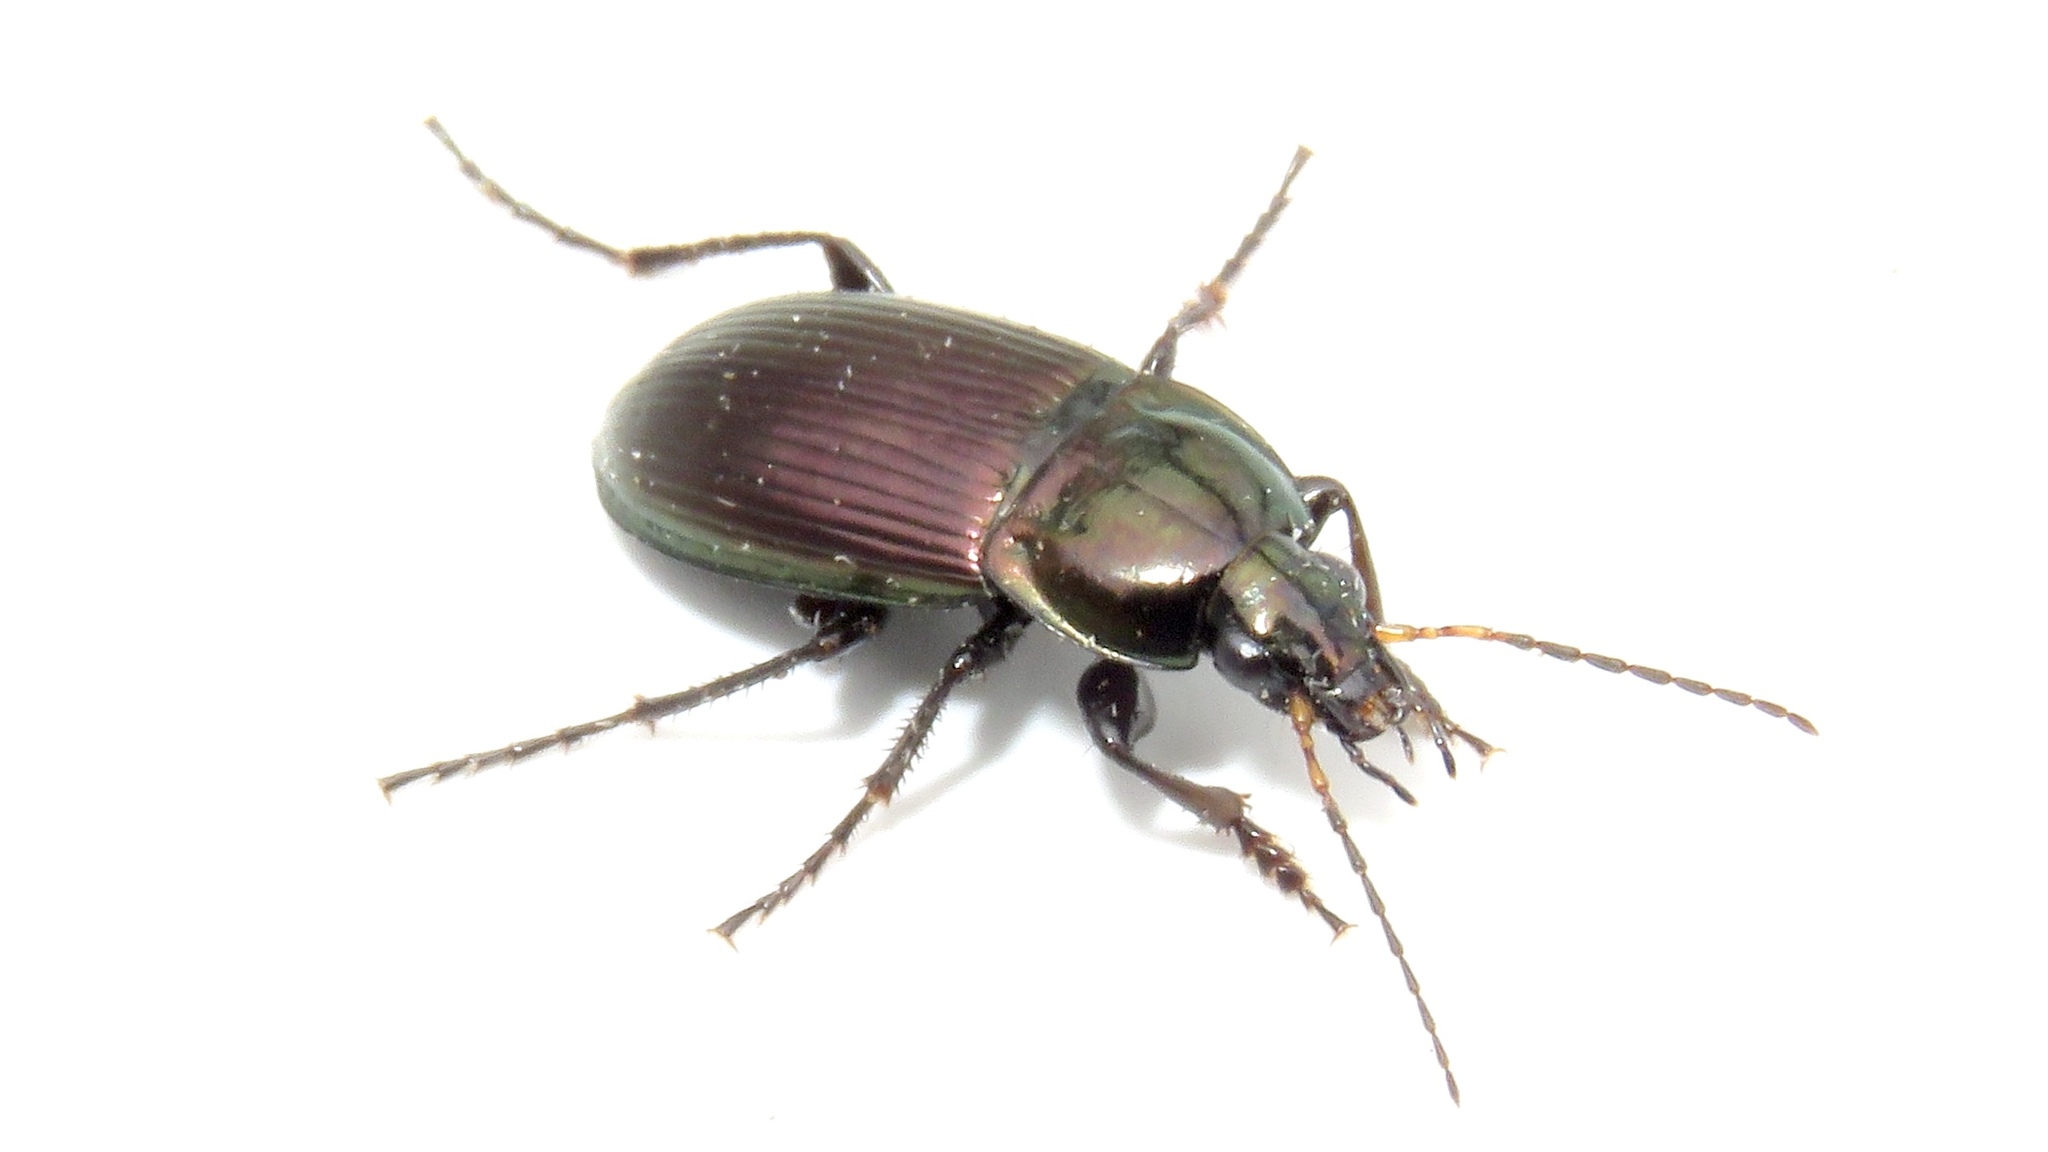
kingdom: Animalia
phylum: Arthropoda
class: Insecta
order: Coleoptera
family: Carabidae
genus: Poecilus
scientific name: Poecilus lucublandus
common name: Woodland ground beetle
